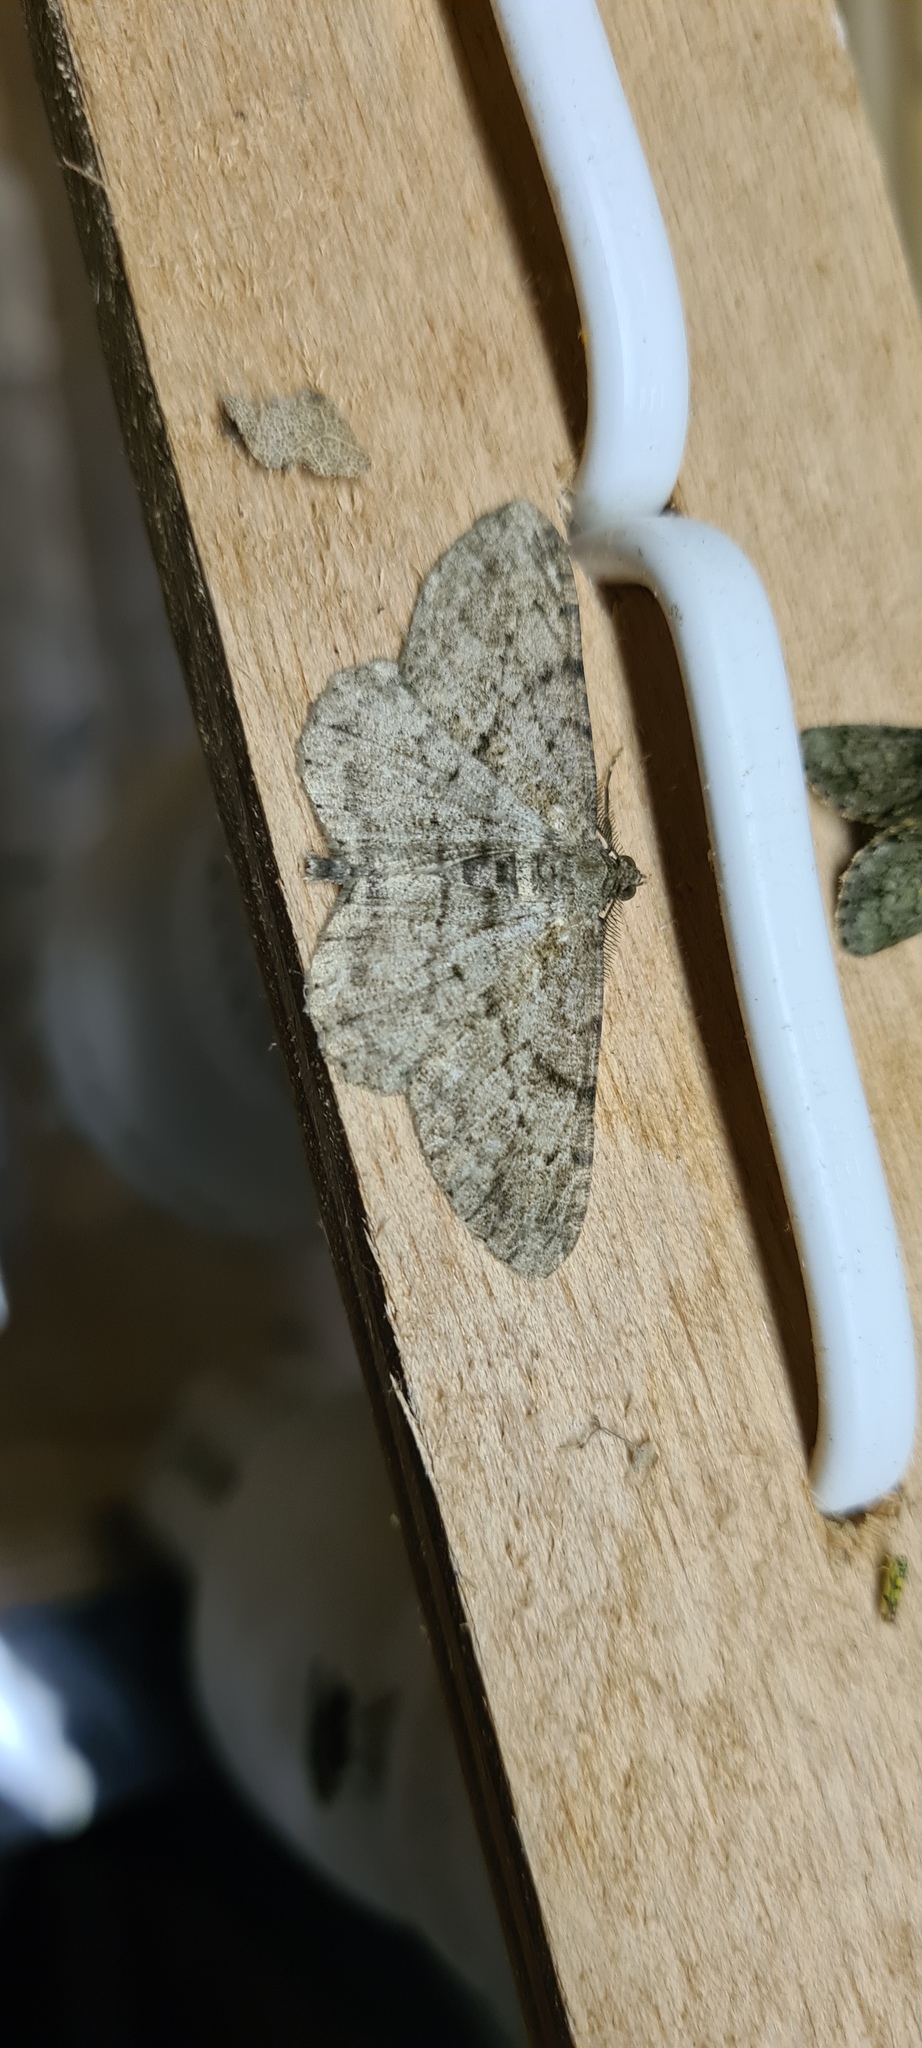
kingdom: Animalia
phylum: Arthropoda
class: Insecta
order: Lepidoptera
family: Geometridae
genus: Peribatodes
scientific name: Peribatodes rhomboidaria
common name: Willow beauty
